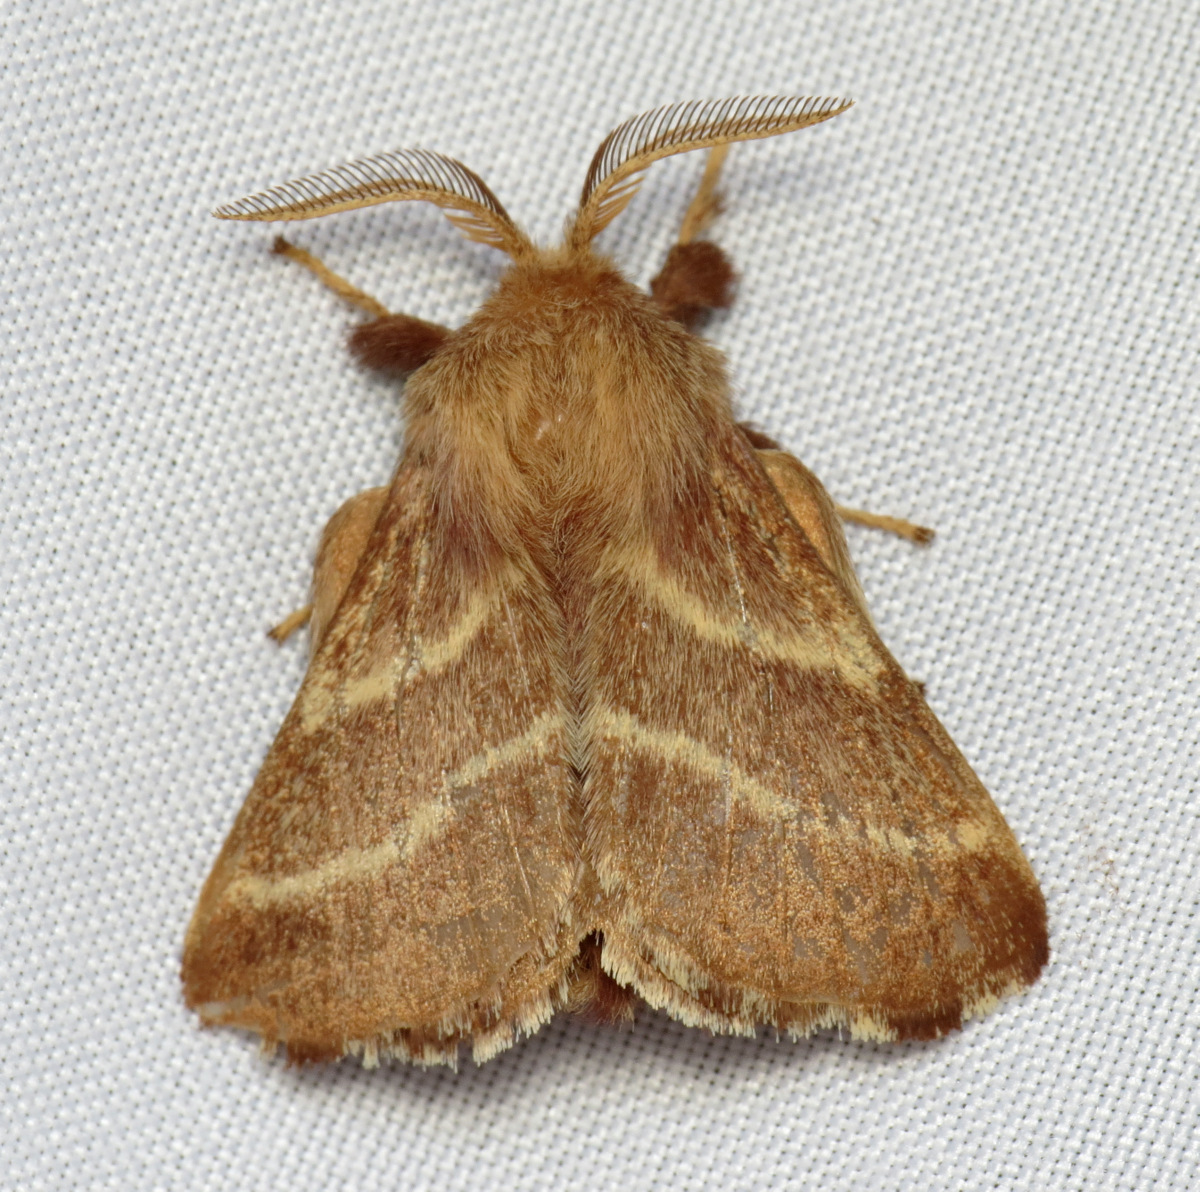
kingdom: Animalia
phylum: Arthropoda
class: Insecta
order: Lepidoptera
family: Lasiocampidae
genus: Malacosoma
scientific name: Malacosoma americana
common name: Eastern tent caterpillar moth
